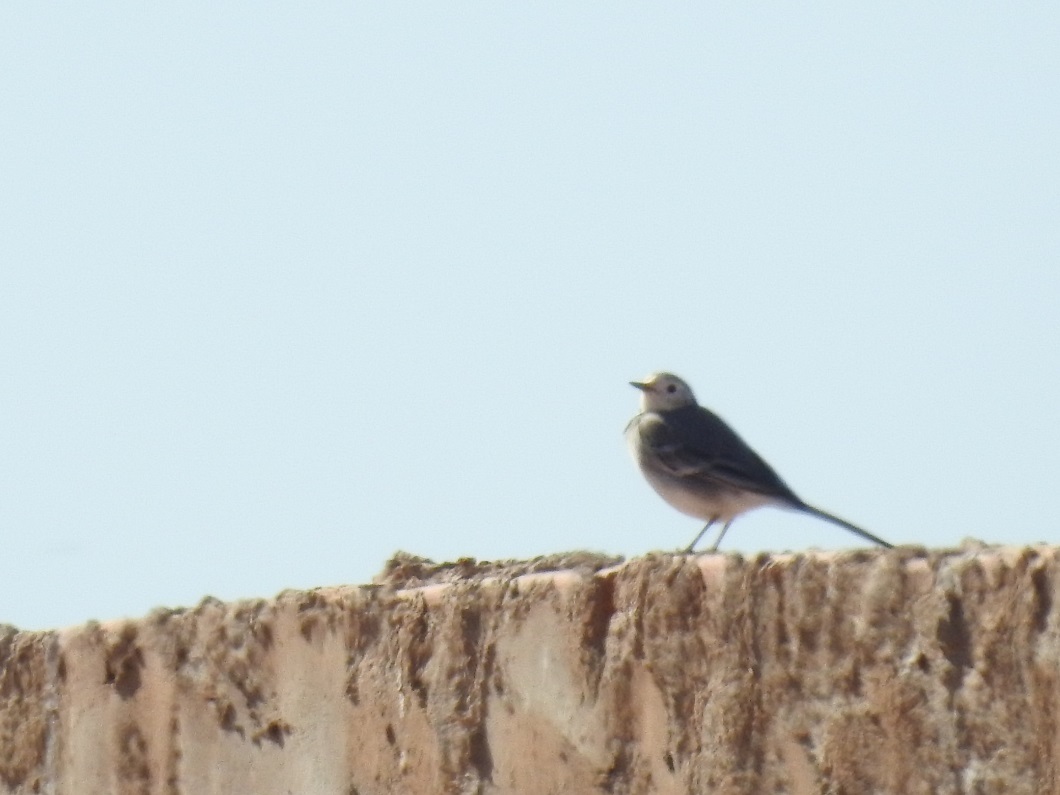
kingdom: Animalia
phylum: Chordata
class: Aves
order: Passeriformes
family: Motacillidae
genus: Motacilla
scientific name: Motacilla alba
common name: White wagtail
